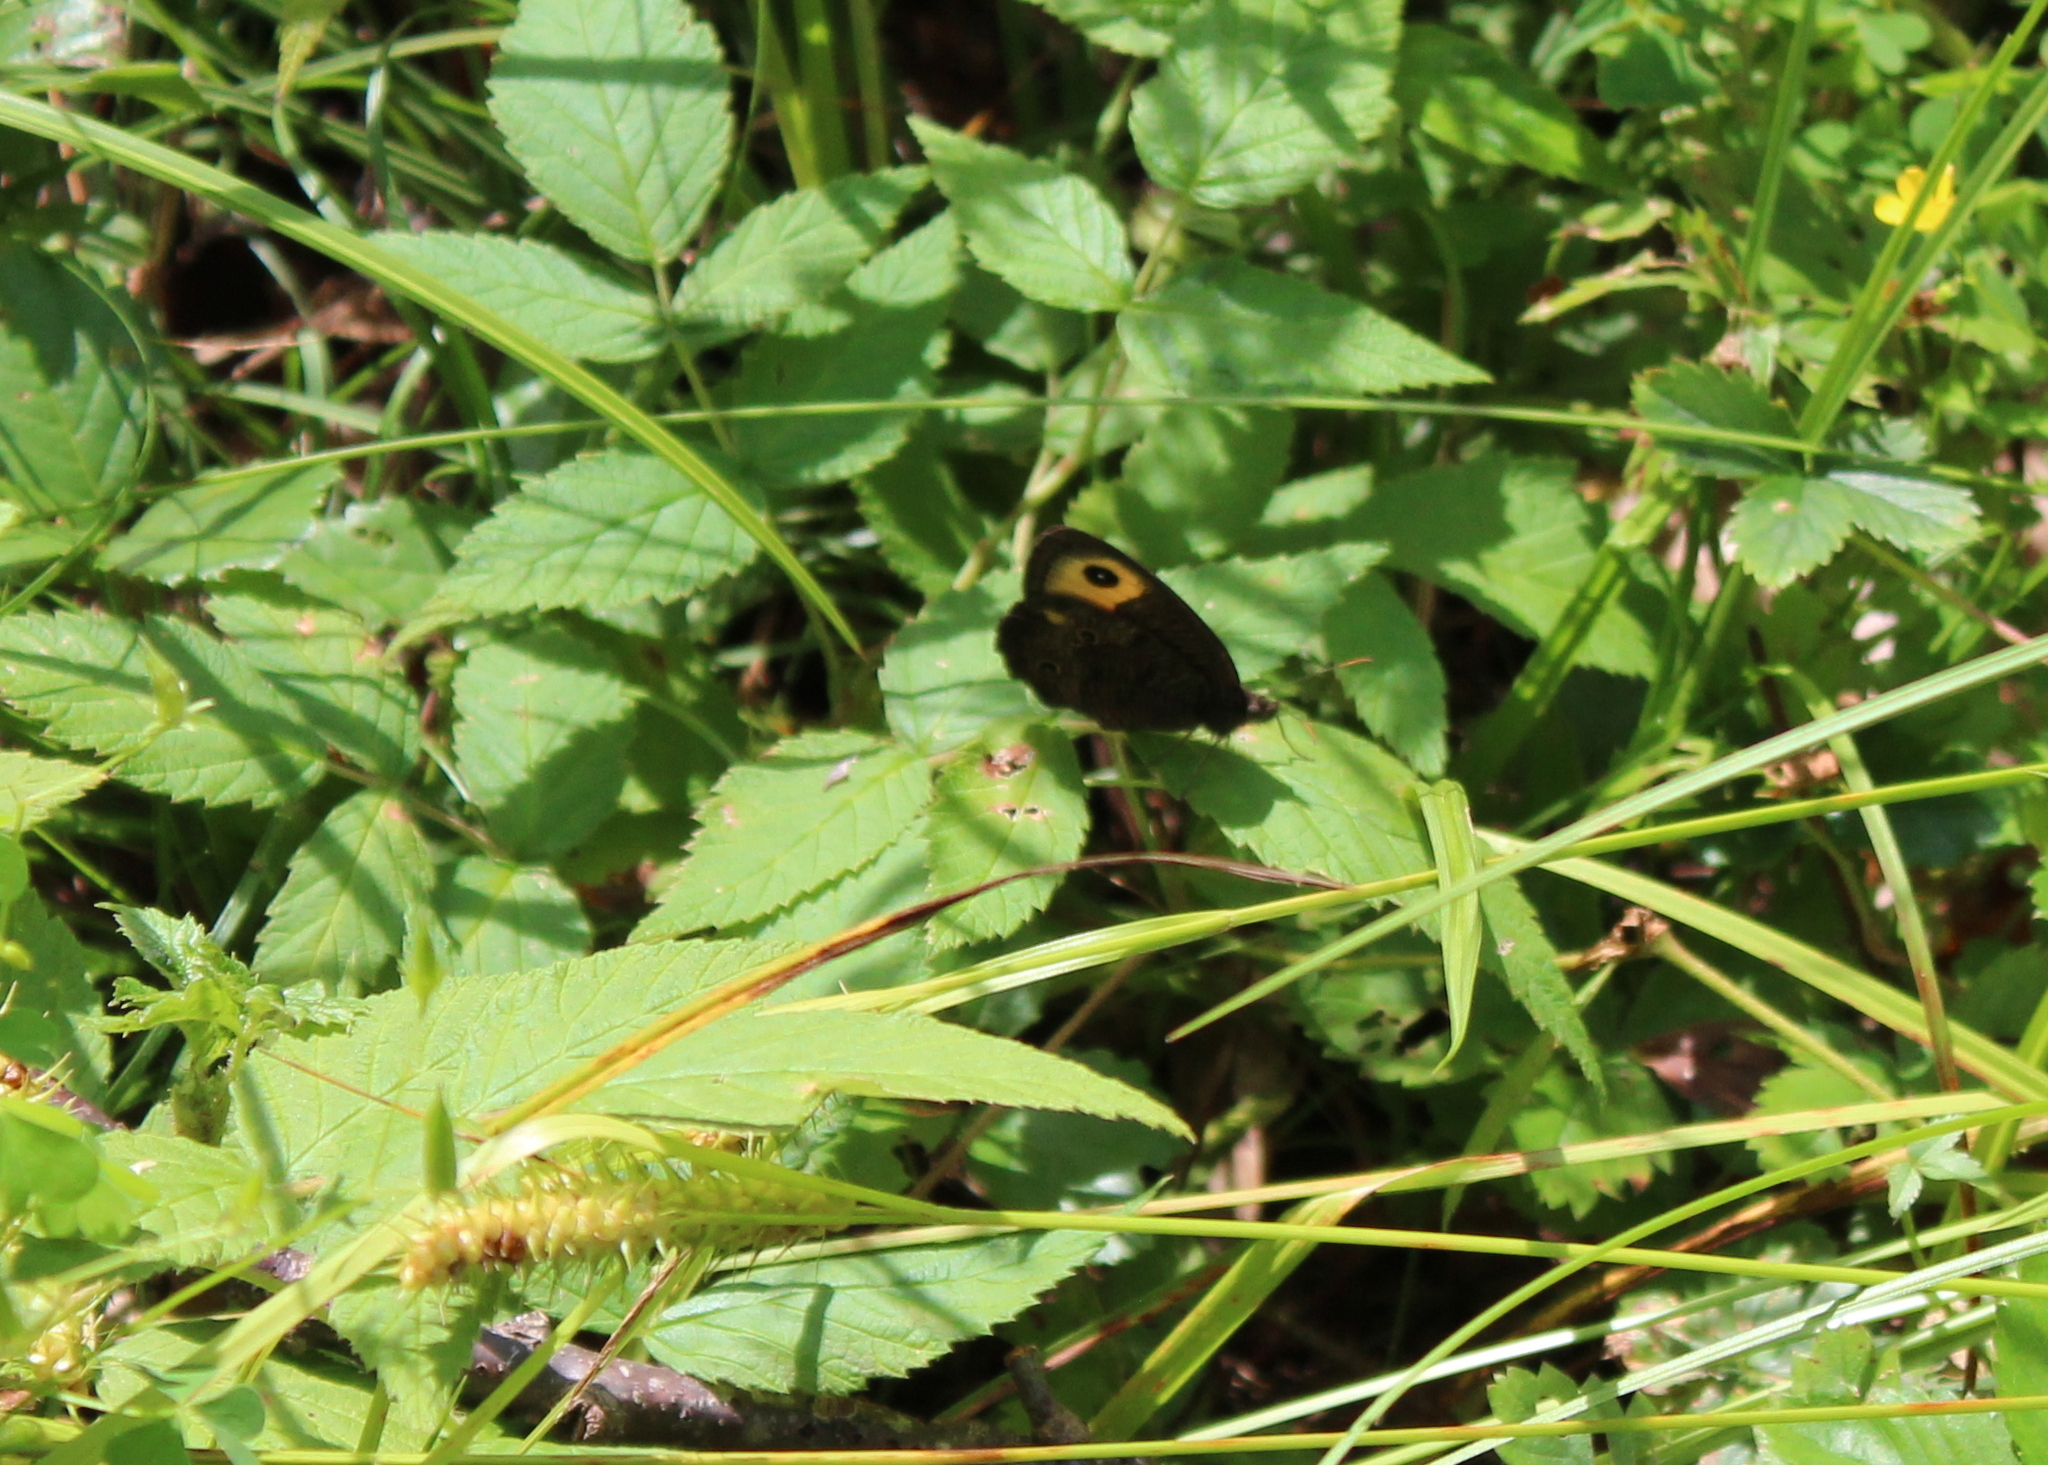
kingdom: Animalia
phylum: Arthropoda
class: Insecta
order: Lepidoptera
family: Nymphalidae
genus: Cercyonis
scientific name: Cercyonis pegala
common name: Common wood-nymph
